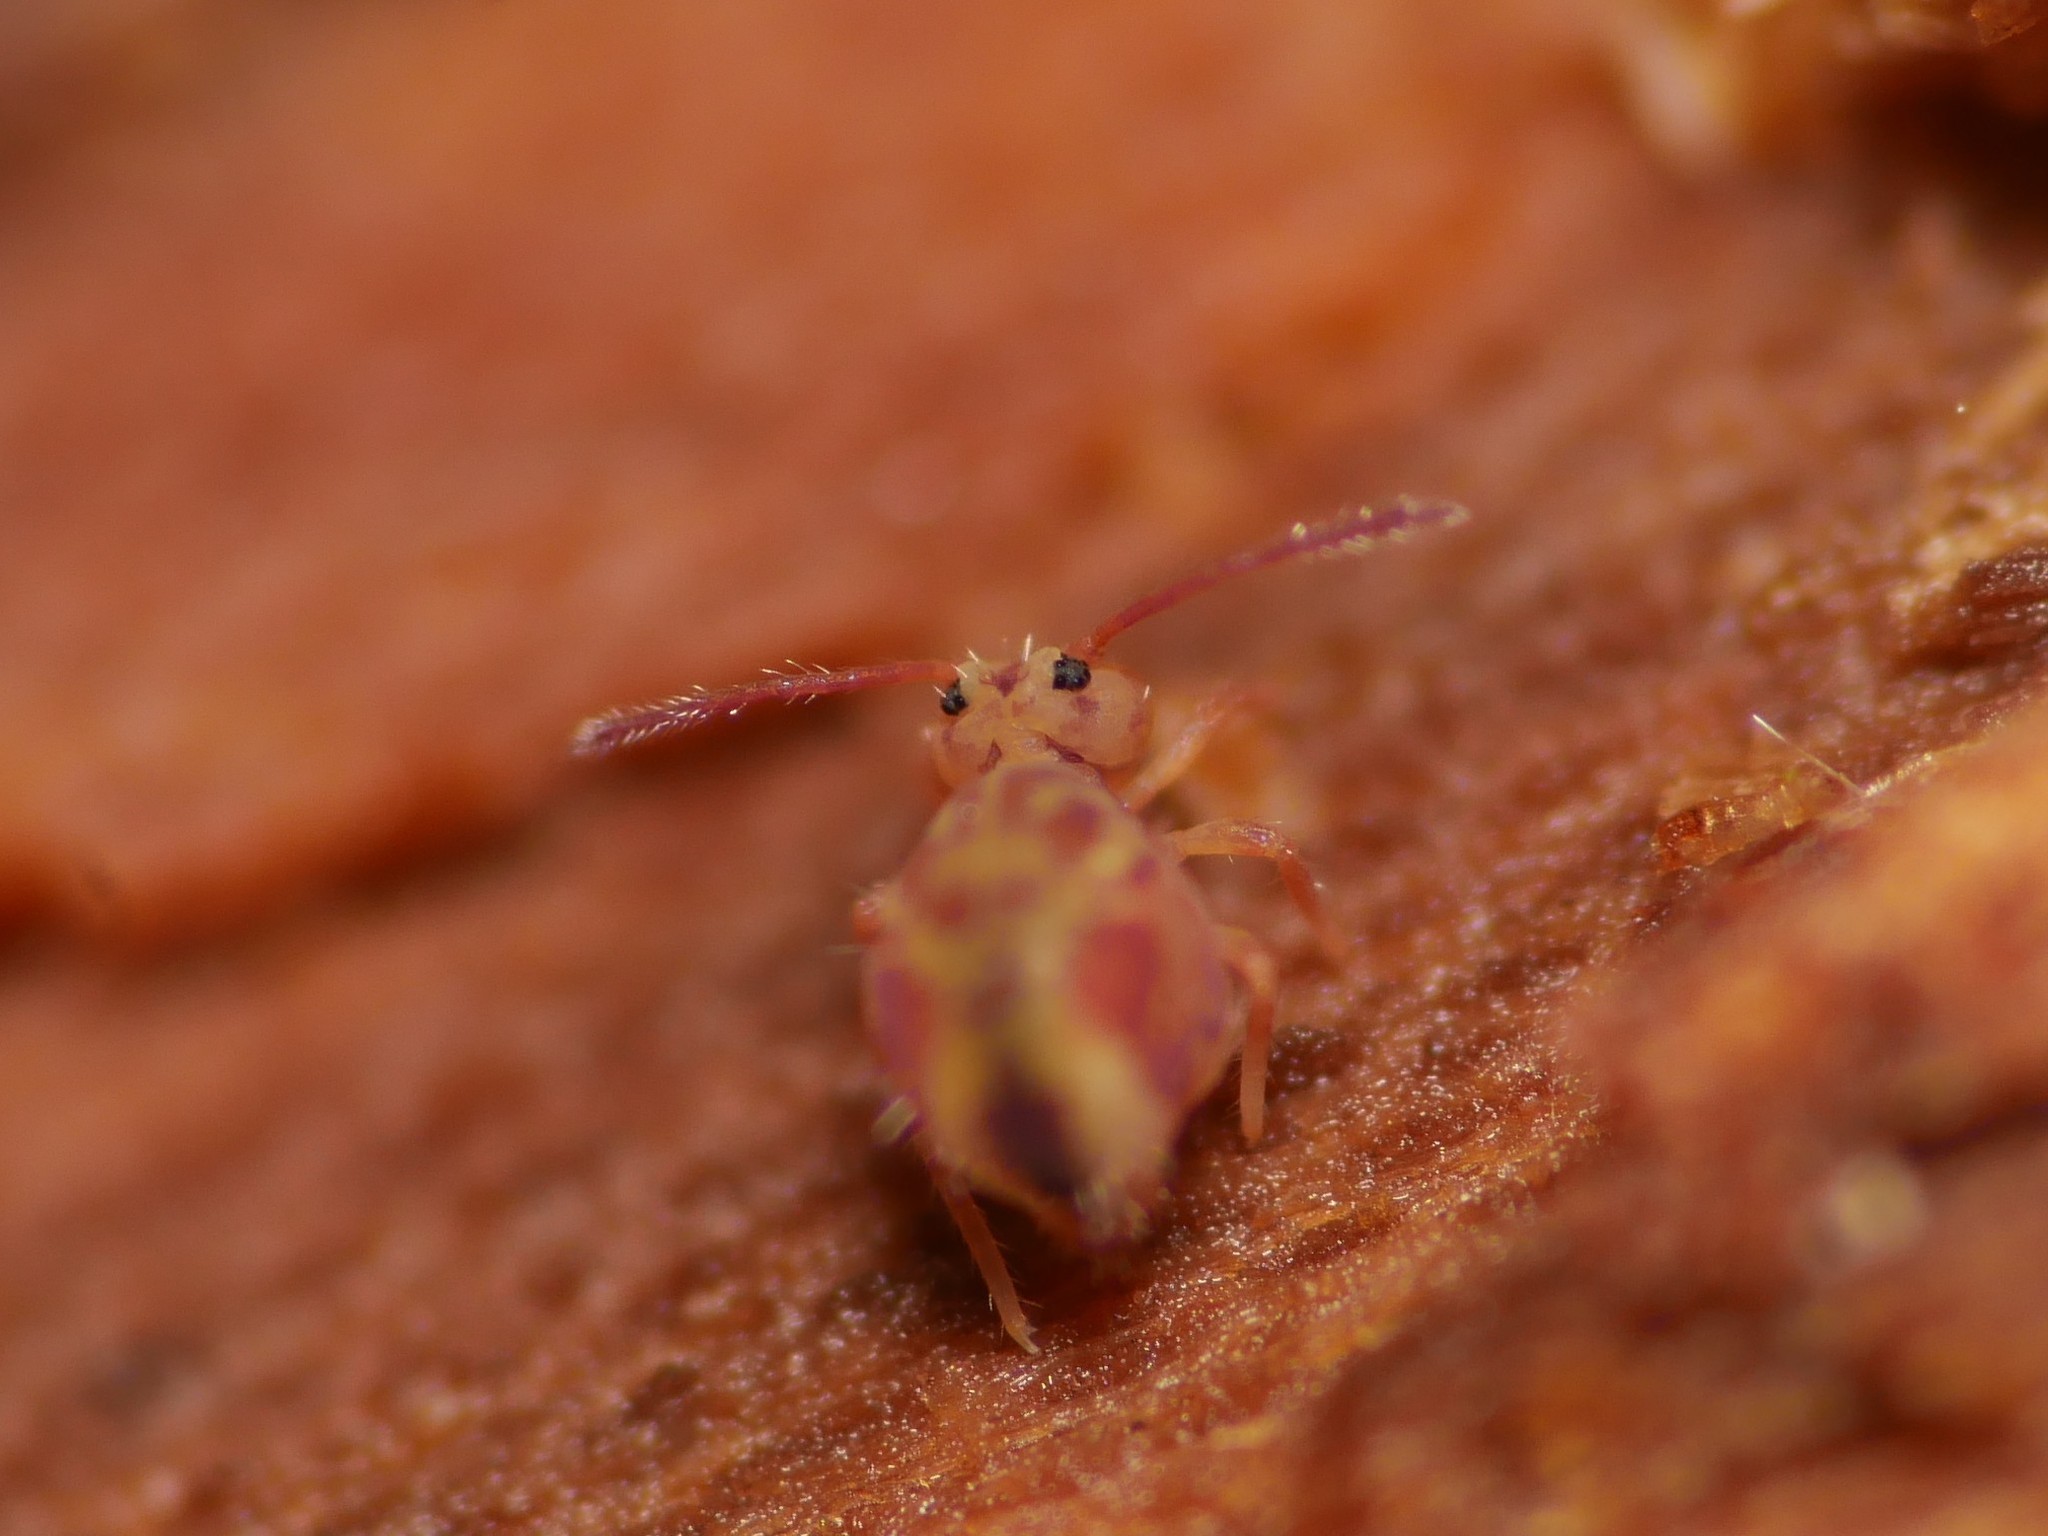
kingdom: Animalia
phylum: Arthropoda
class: Collembola
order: Symphypleona
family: Dicyrtomidae
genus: Dicyrtomina
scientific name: Dicyrtomina ornata
